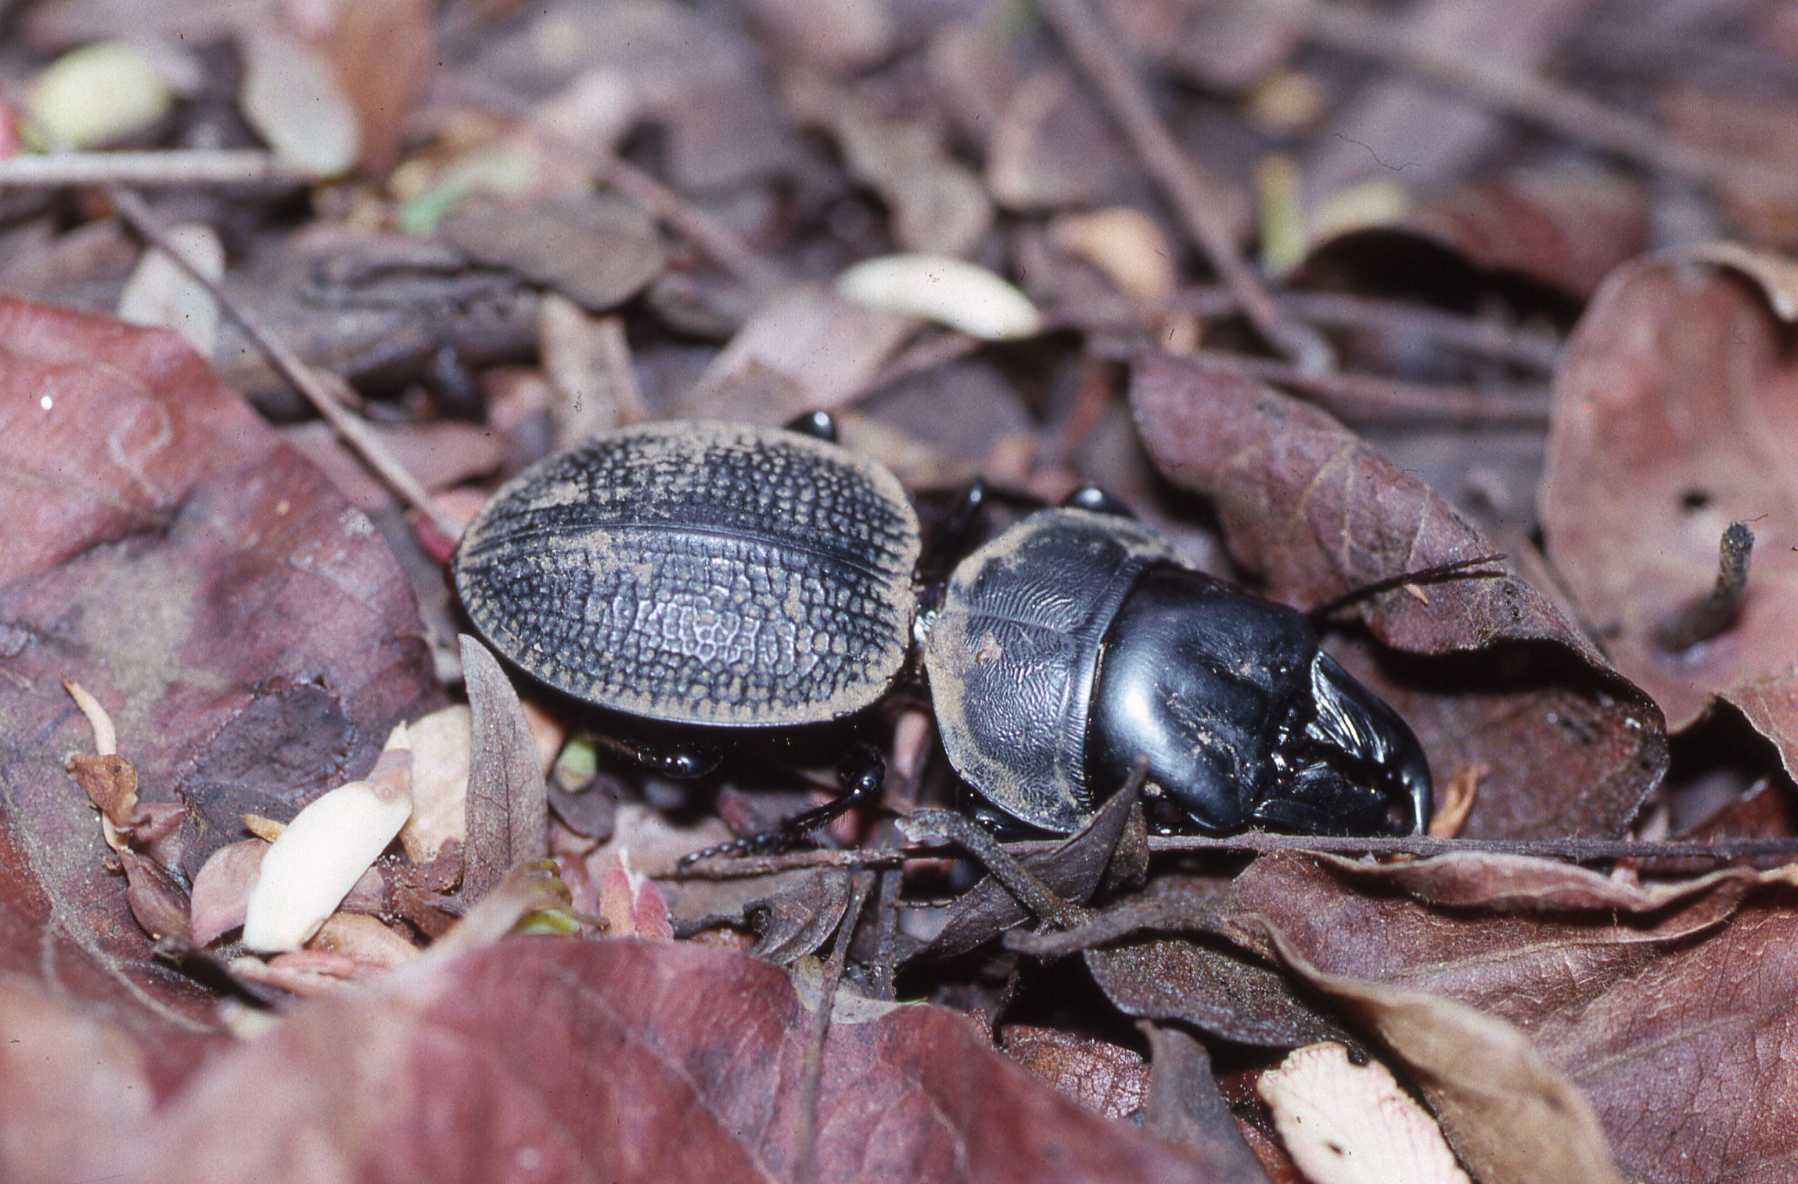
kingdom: Animalia
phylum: Arthropoda
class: Insecta
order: Coleoptera
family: Carabidae
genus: Crepidopterus
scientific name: Crepidopterus decorsii
